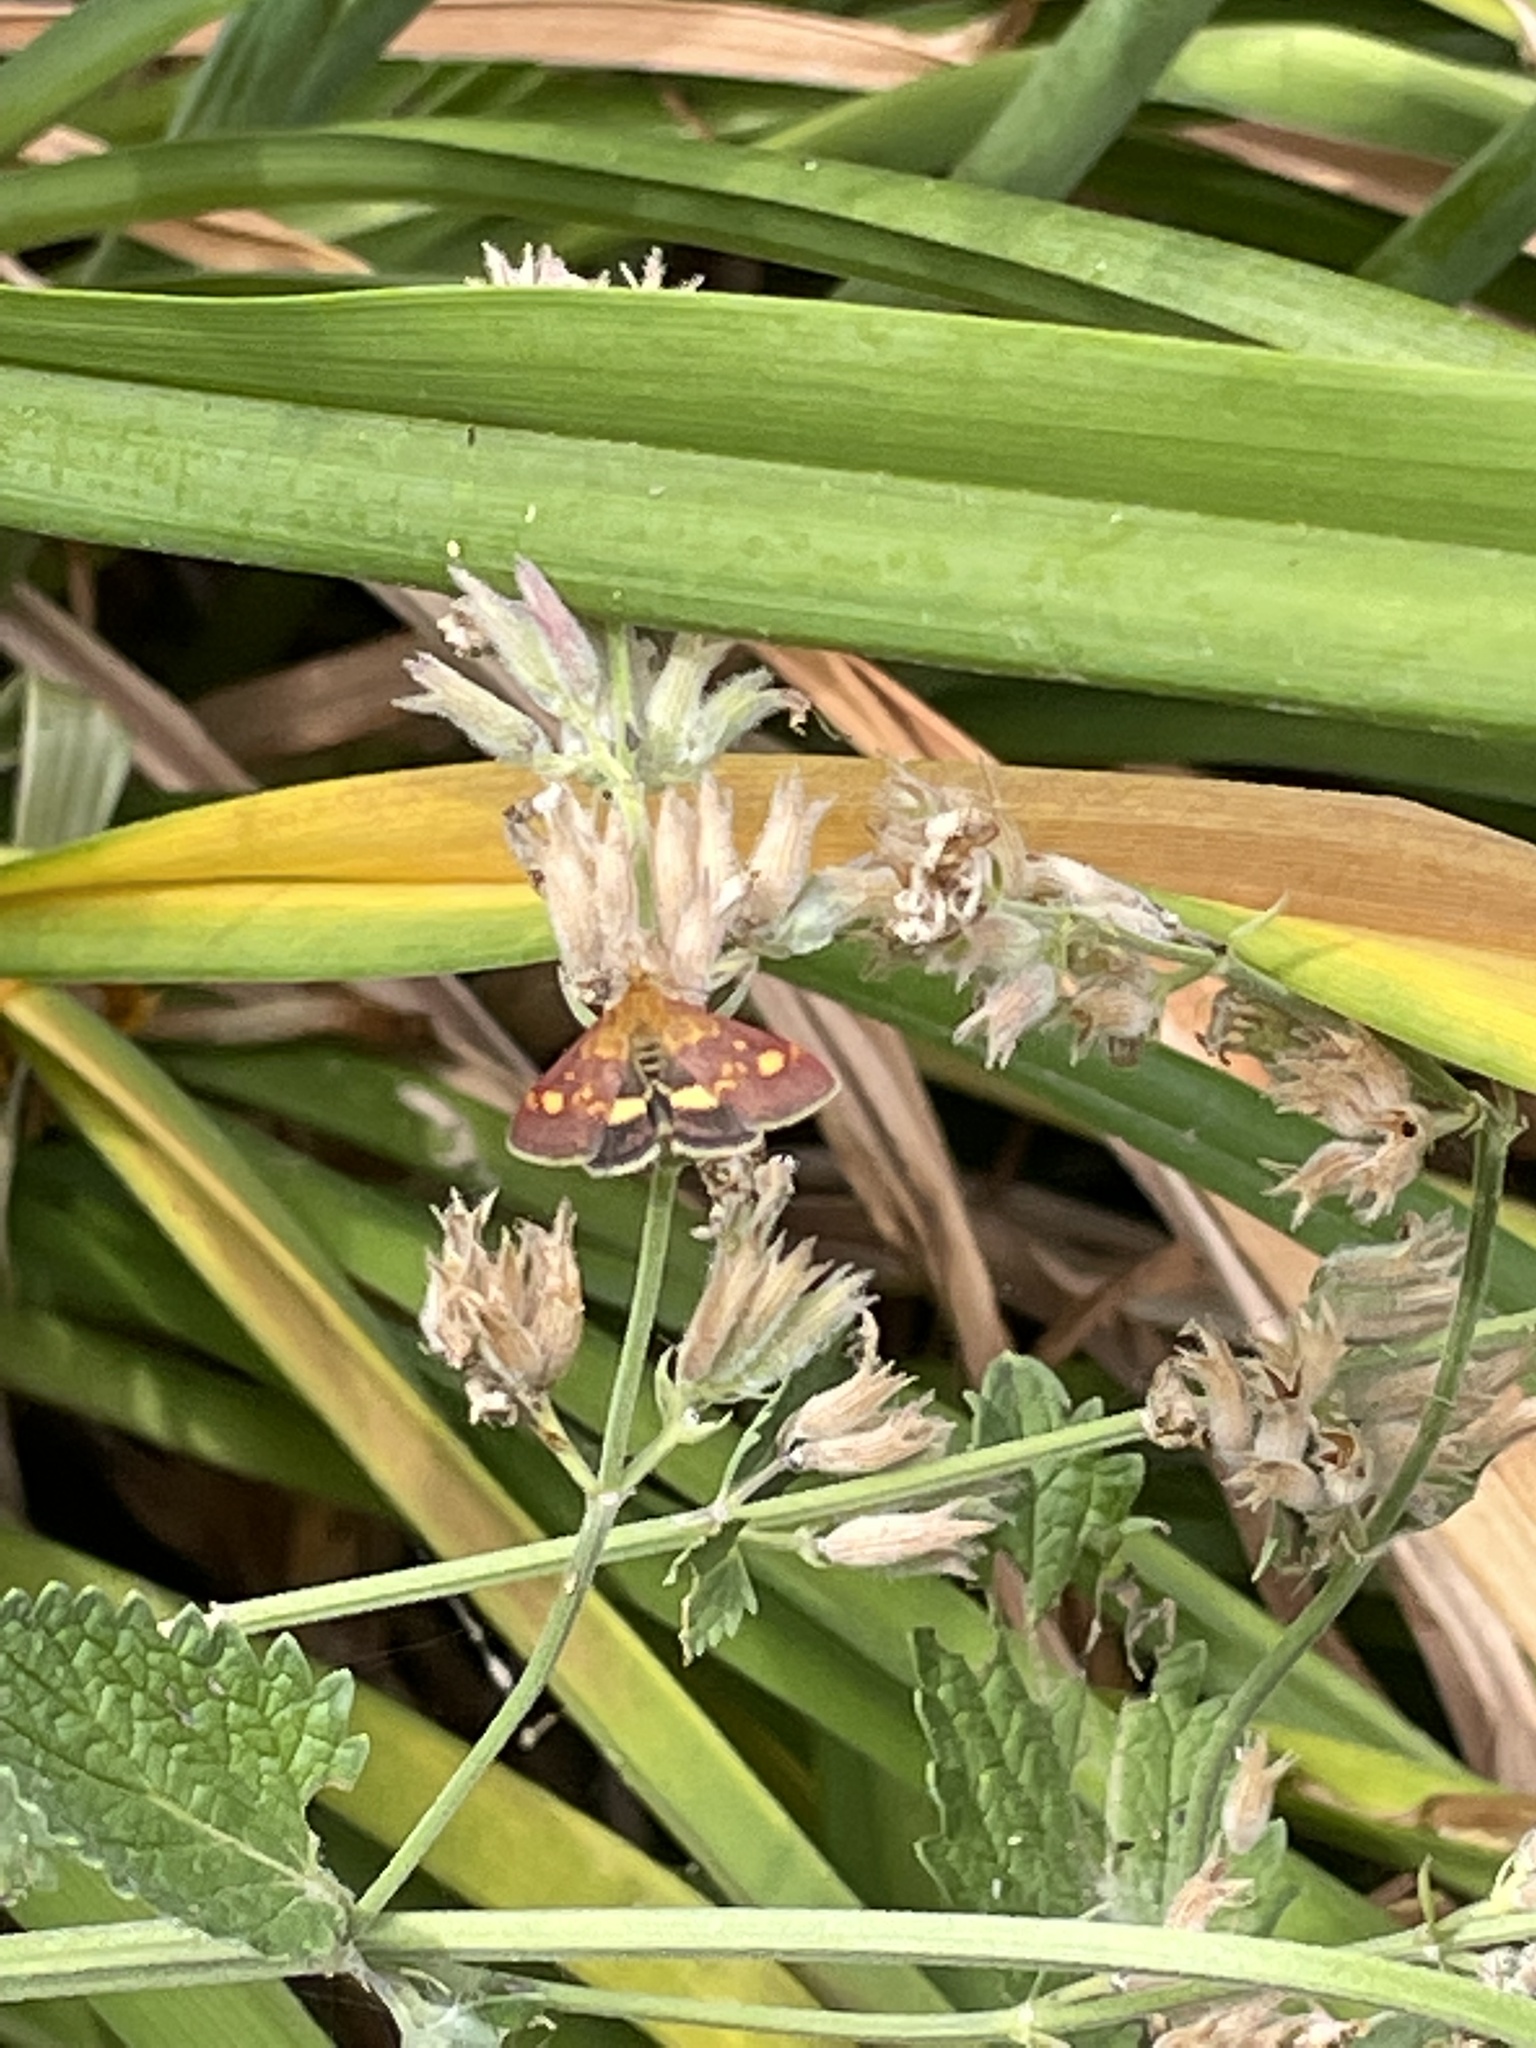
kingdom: Animalia
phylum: Arthropoda
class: Insecta
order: Lepidoptera
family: Crambidae
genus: Pyrausta
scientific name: Pyrausta aurata
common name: Small purple & gold
